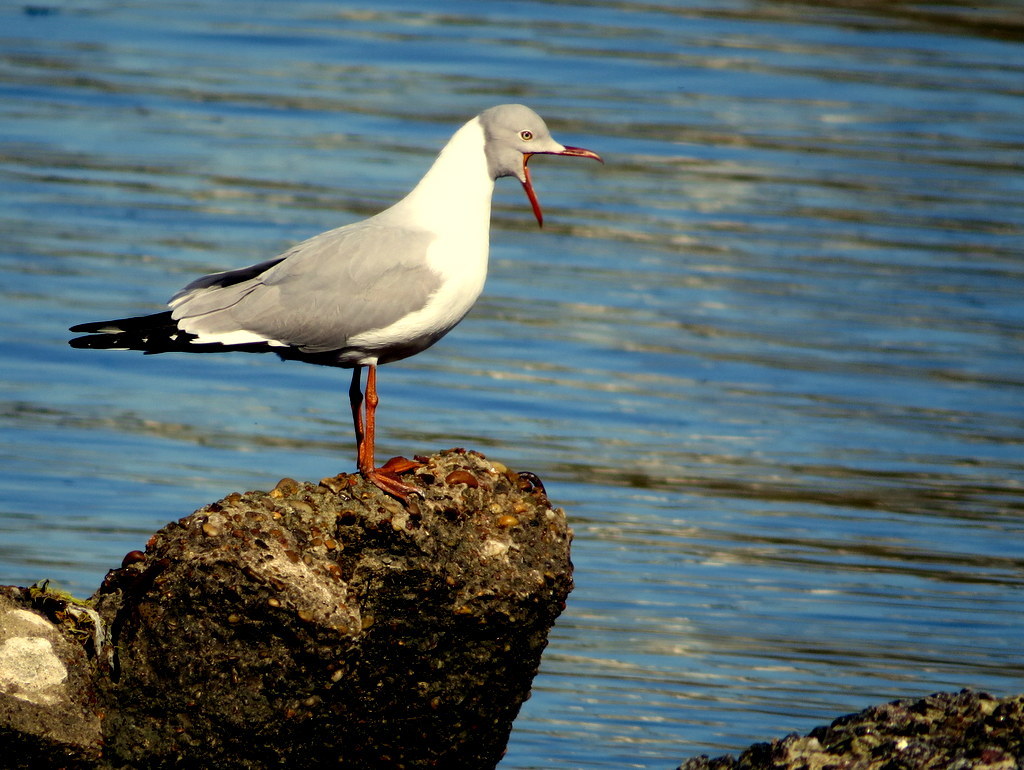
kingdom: Animalia
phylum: Chordata
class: Aves
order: Charadriiformes
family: Laridae
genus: Chroicocephalus
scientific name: Chroicocephalus cirrocephalus
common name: Grey-headed gull
